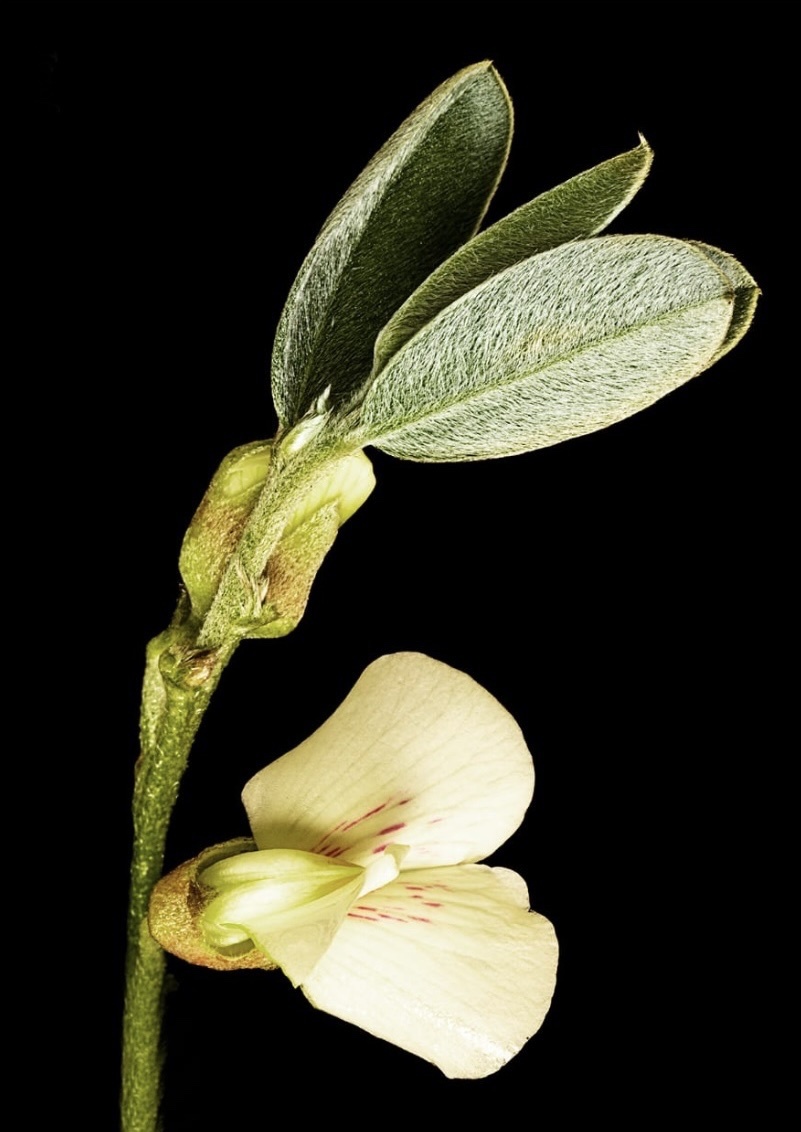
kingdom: Plantae
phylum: Tracheophyta
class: Magnoliopsida
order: Fabales
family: Fabaceae
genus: Podalyria
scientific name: Podalyria myrtillifolia
